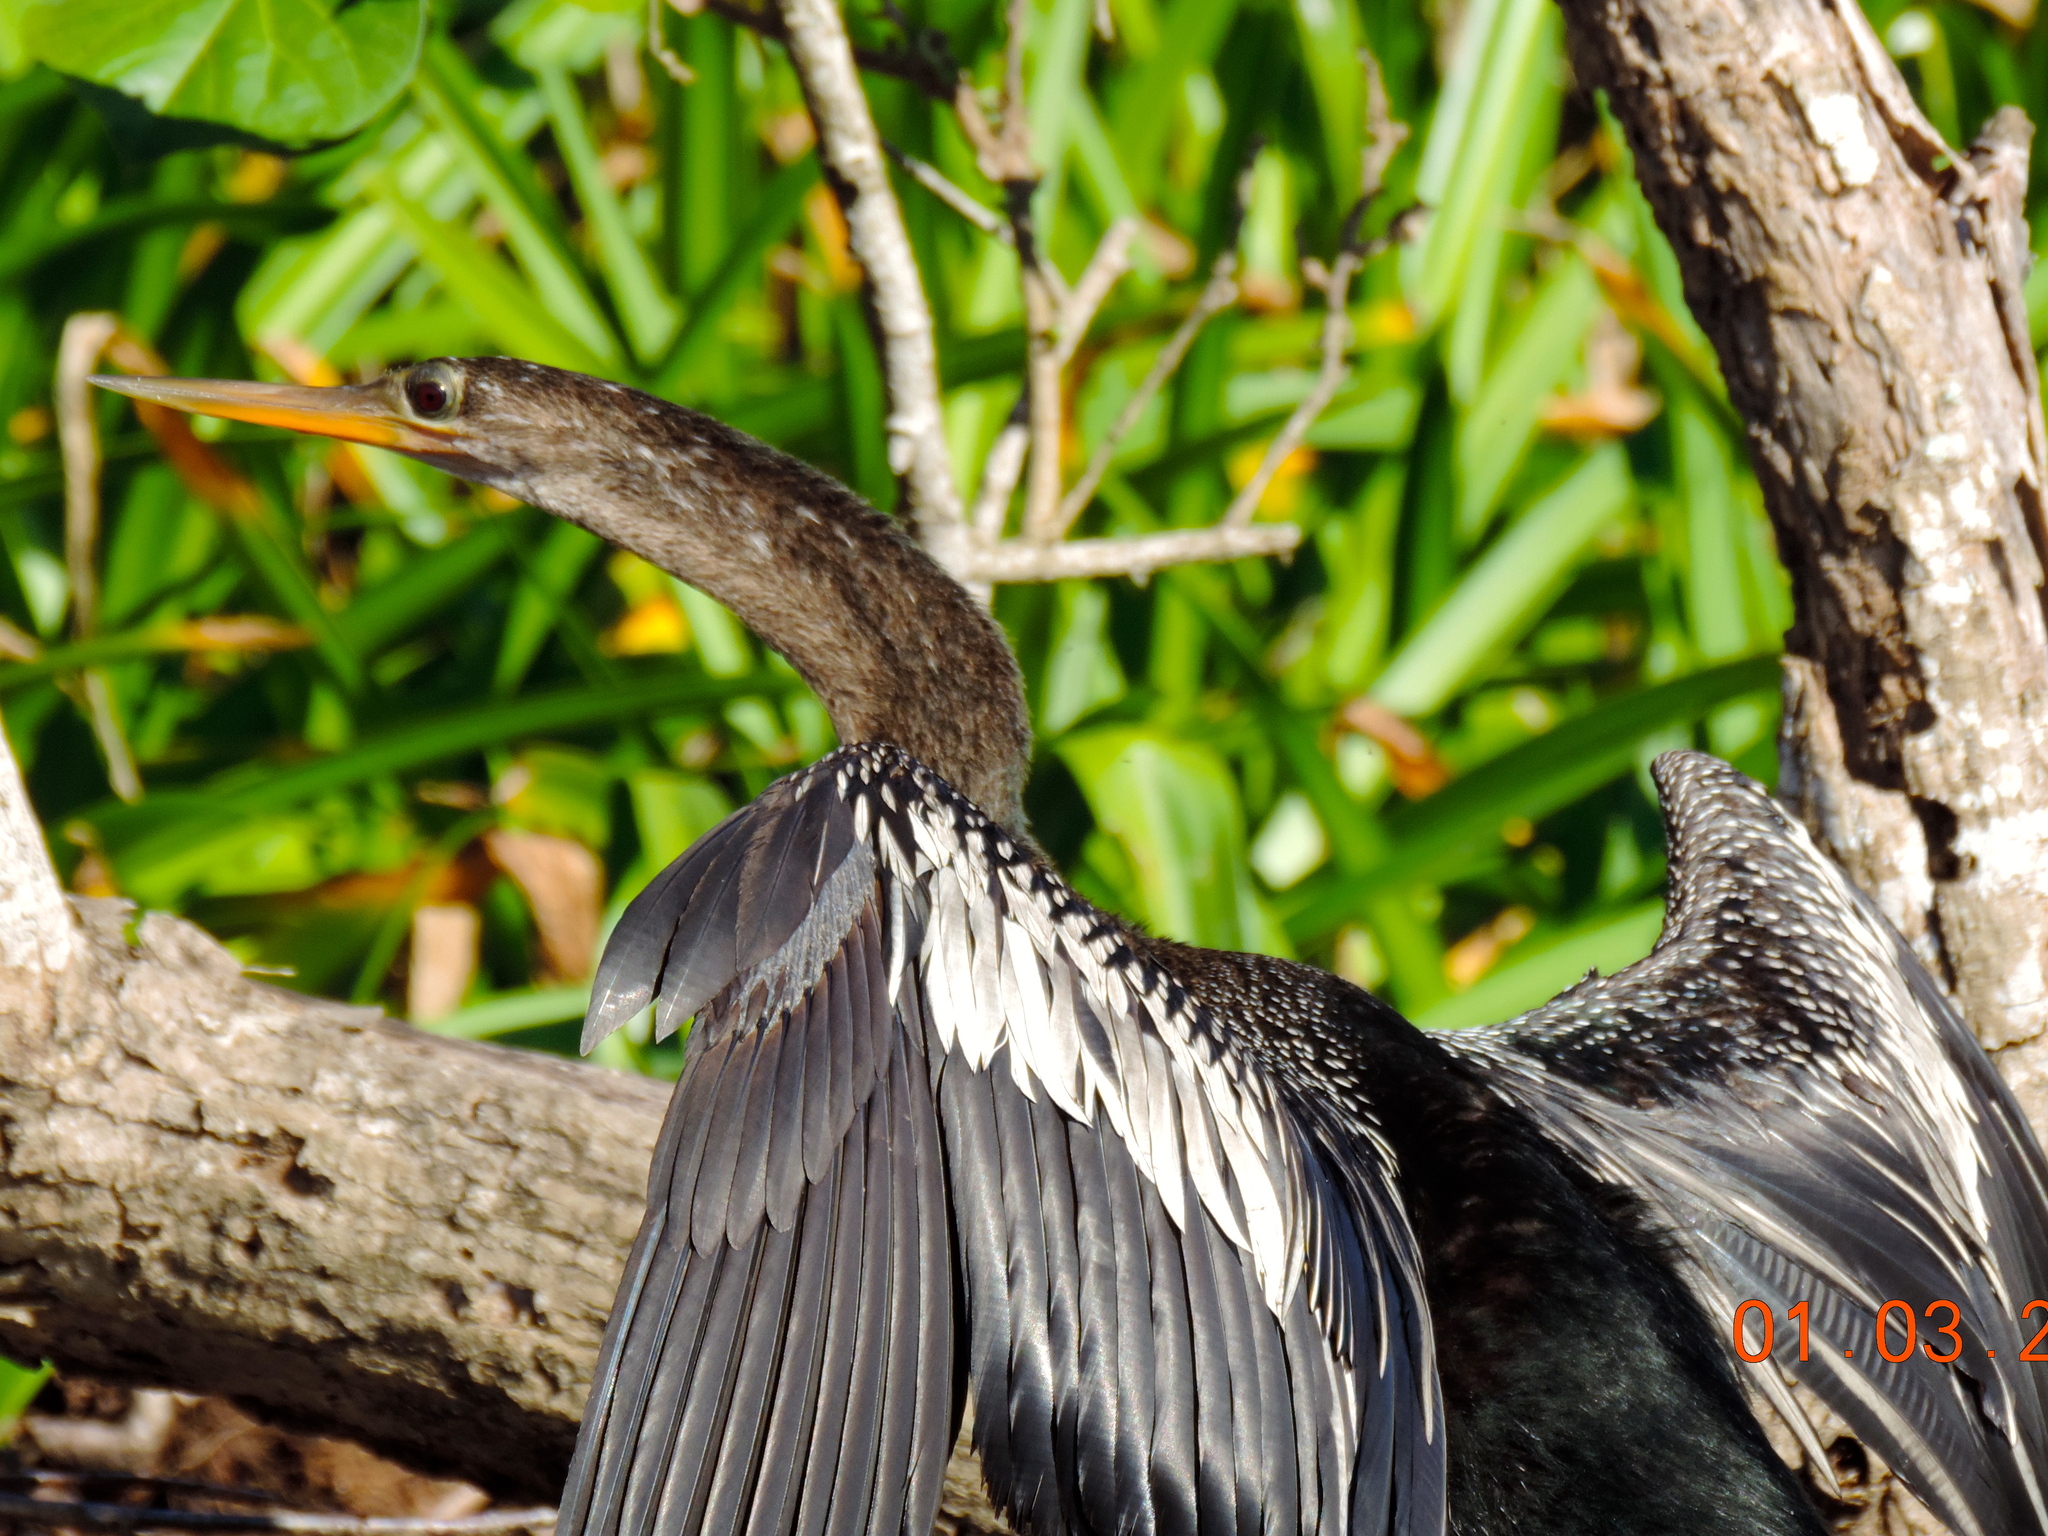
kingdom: Animalia
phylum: Chordata
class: Aves
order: Suliformes
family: Anhingidae
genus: Anhinga
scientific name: Anhinga anhinga
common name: Anhinga
